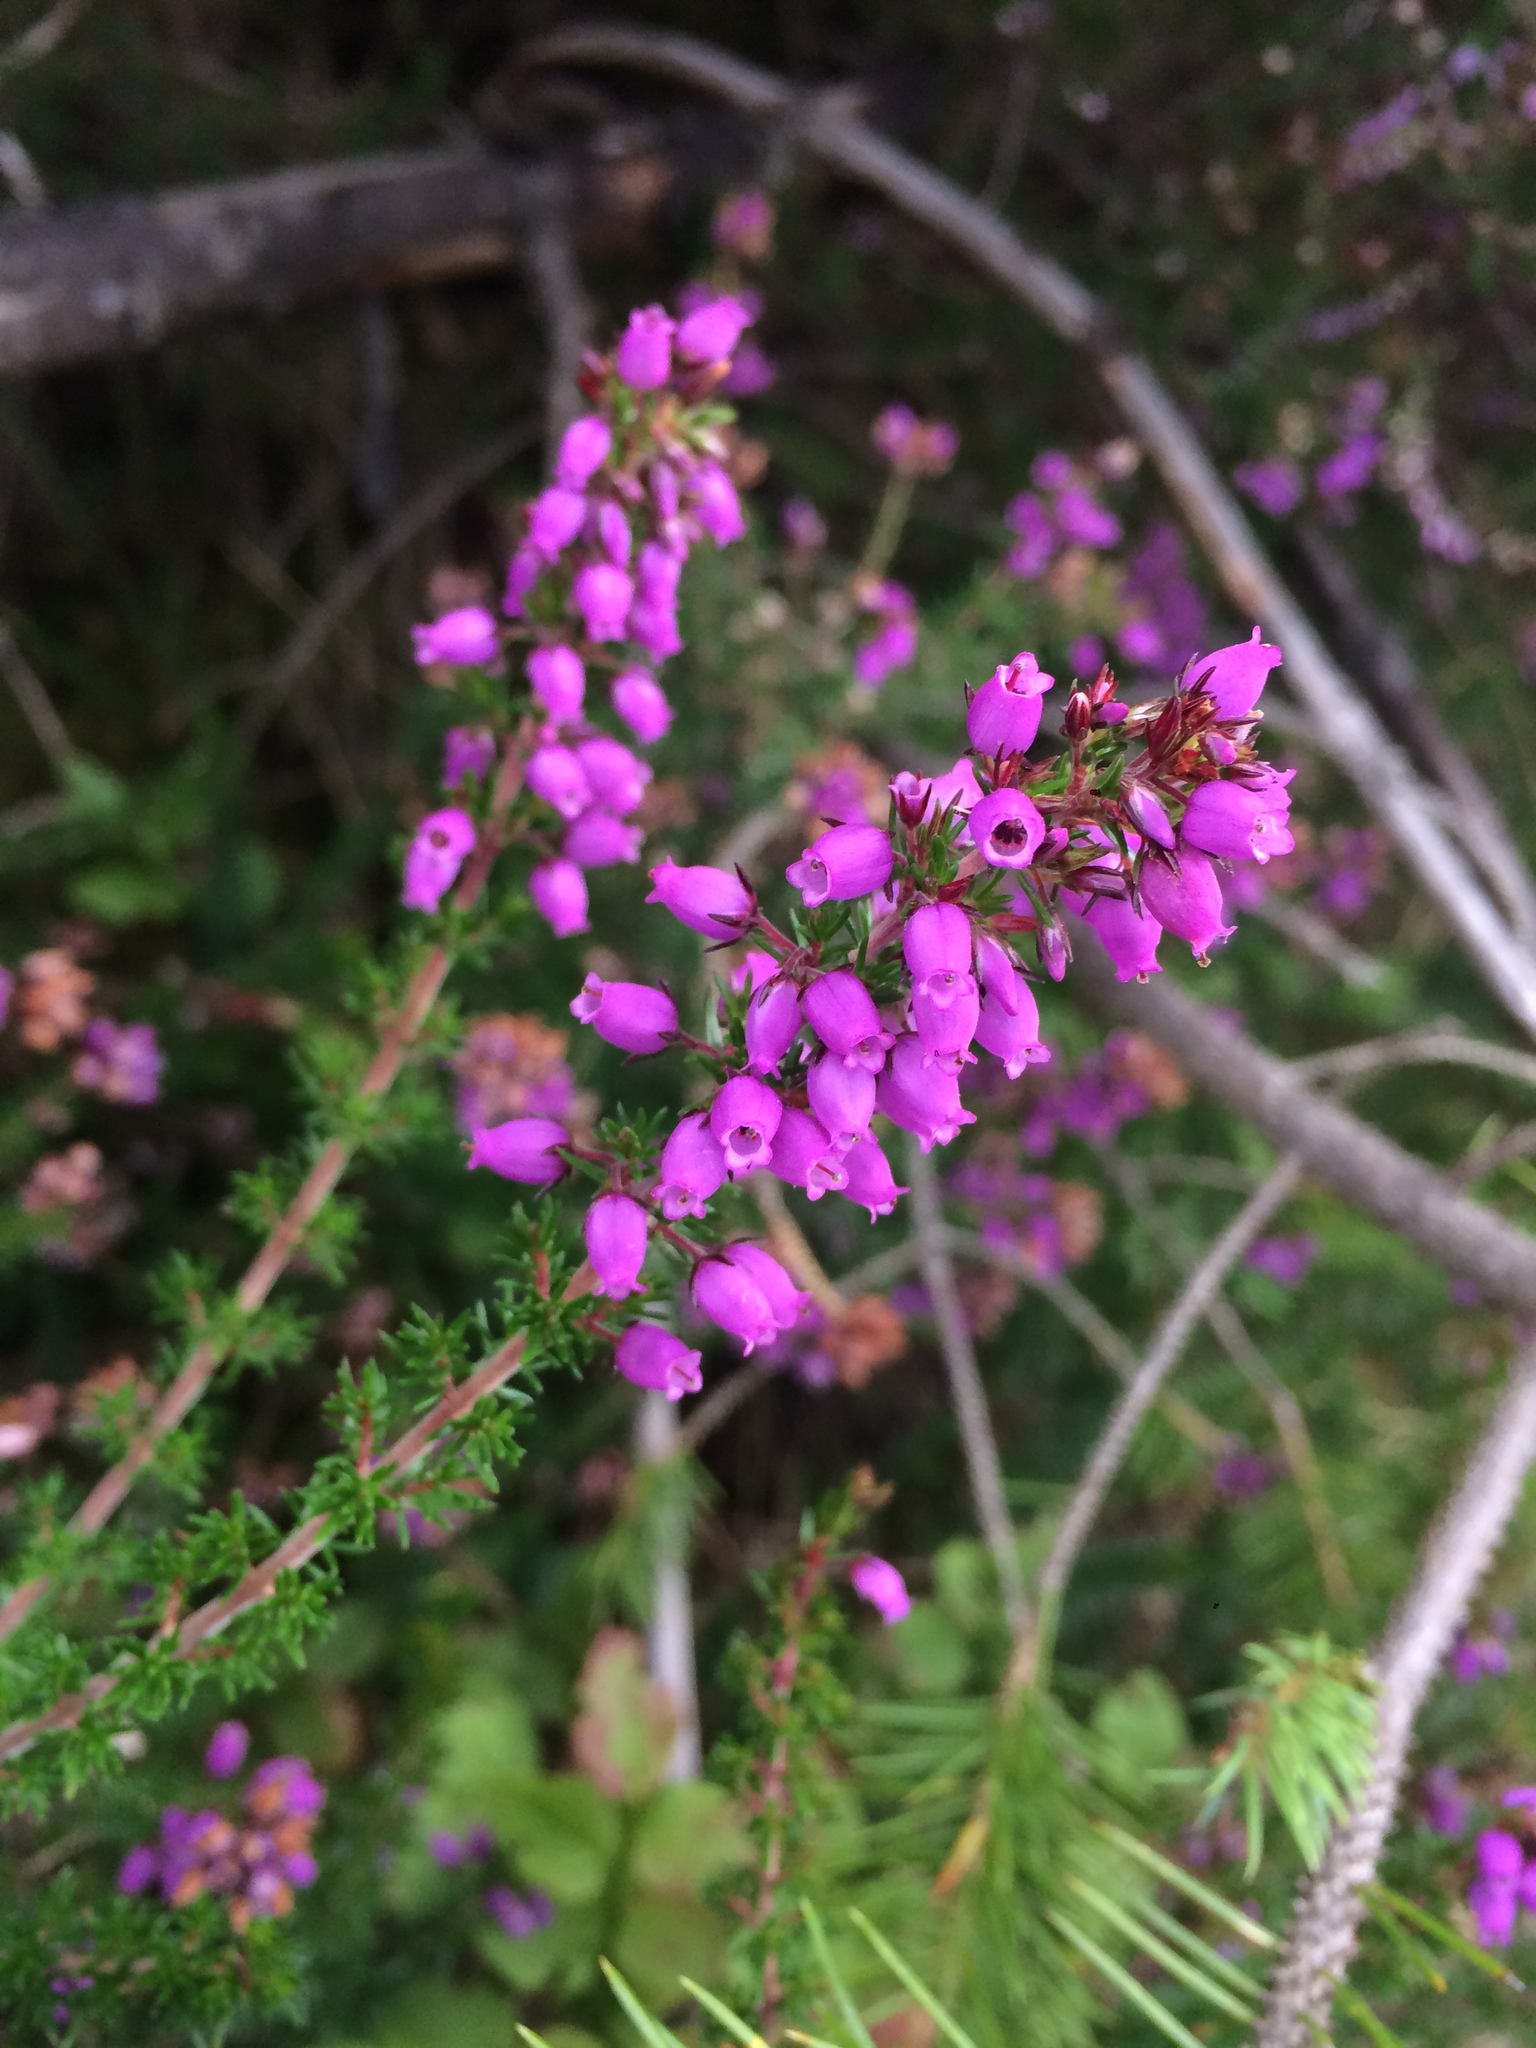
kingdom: Plantae
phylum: Tracheophyta
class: Magnoliopsida
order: Ericales
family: Ericaceae
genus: Erica
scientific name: Erica cinerea
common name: Bell heather
